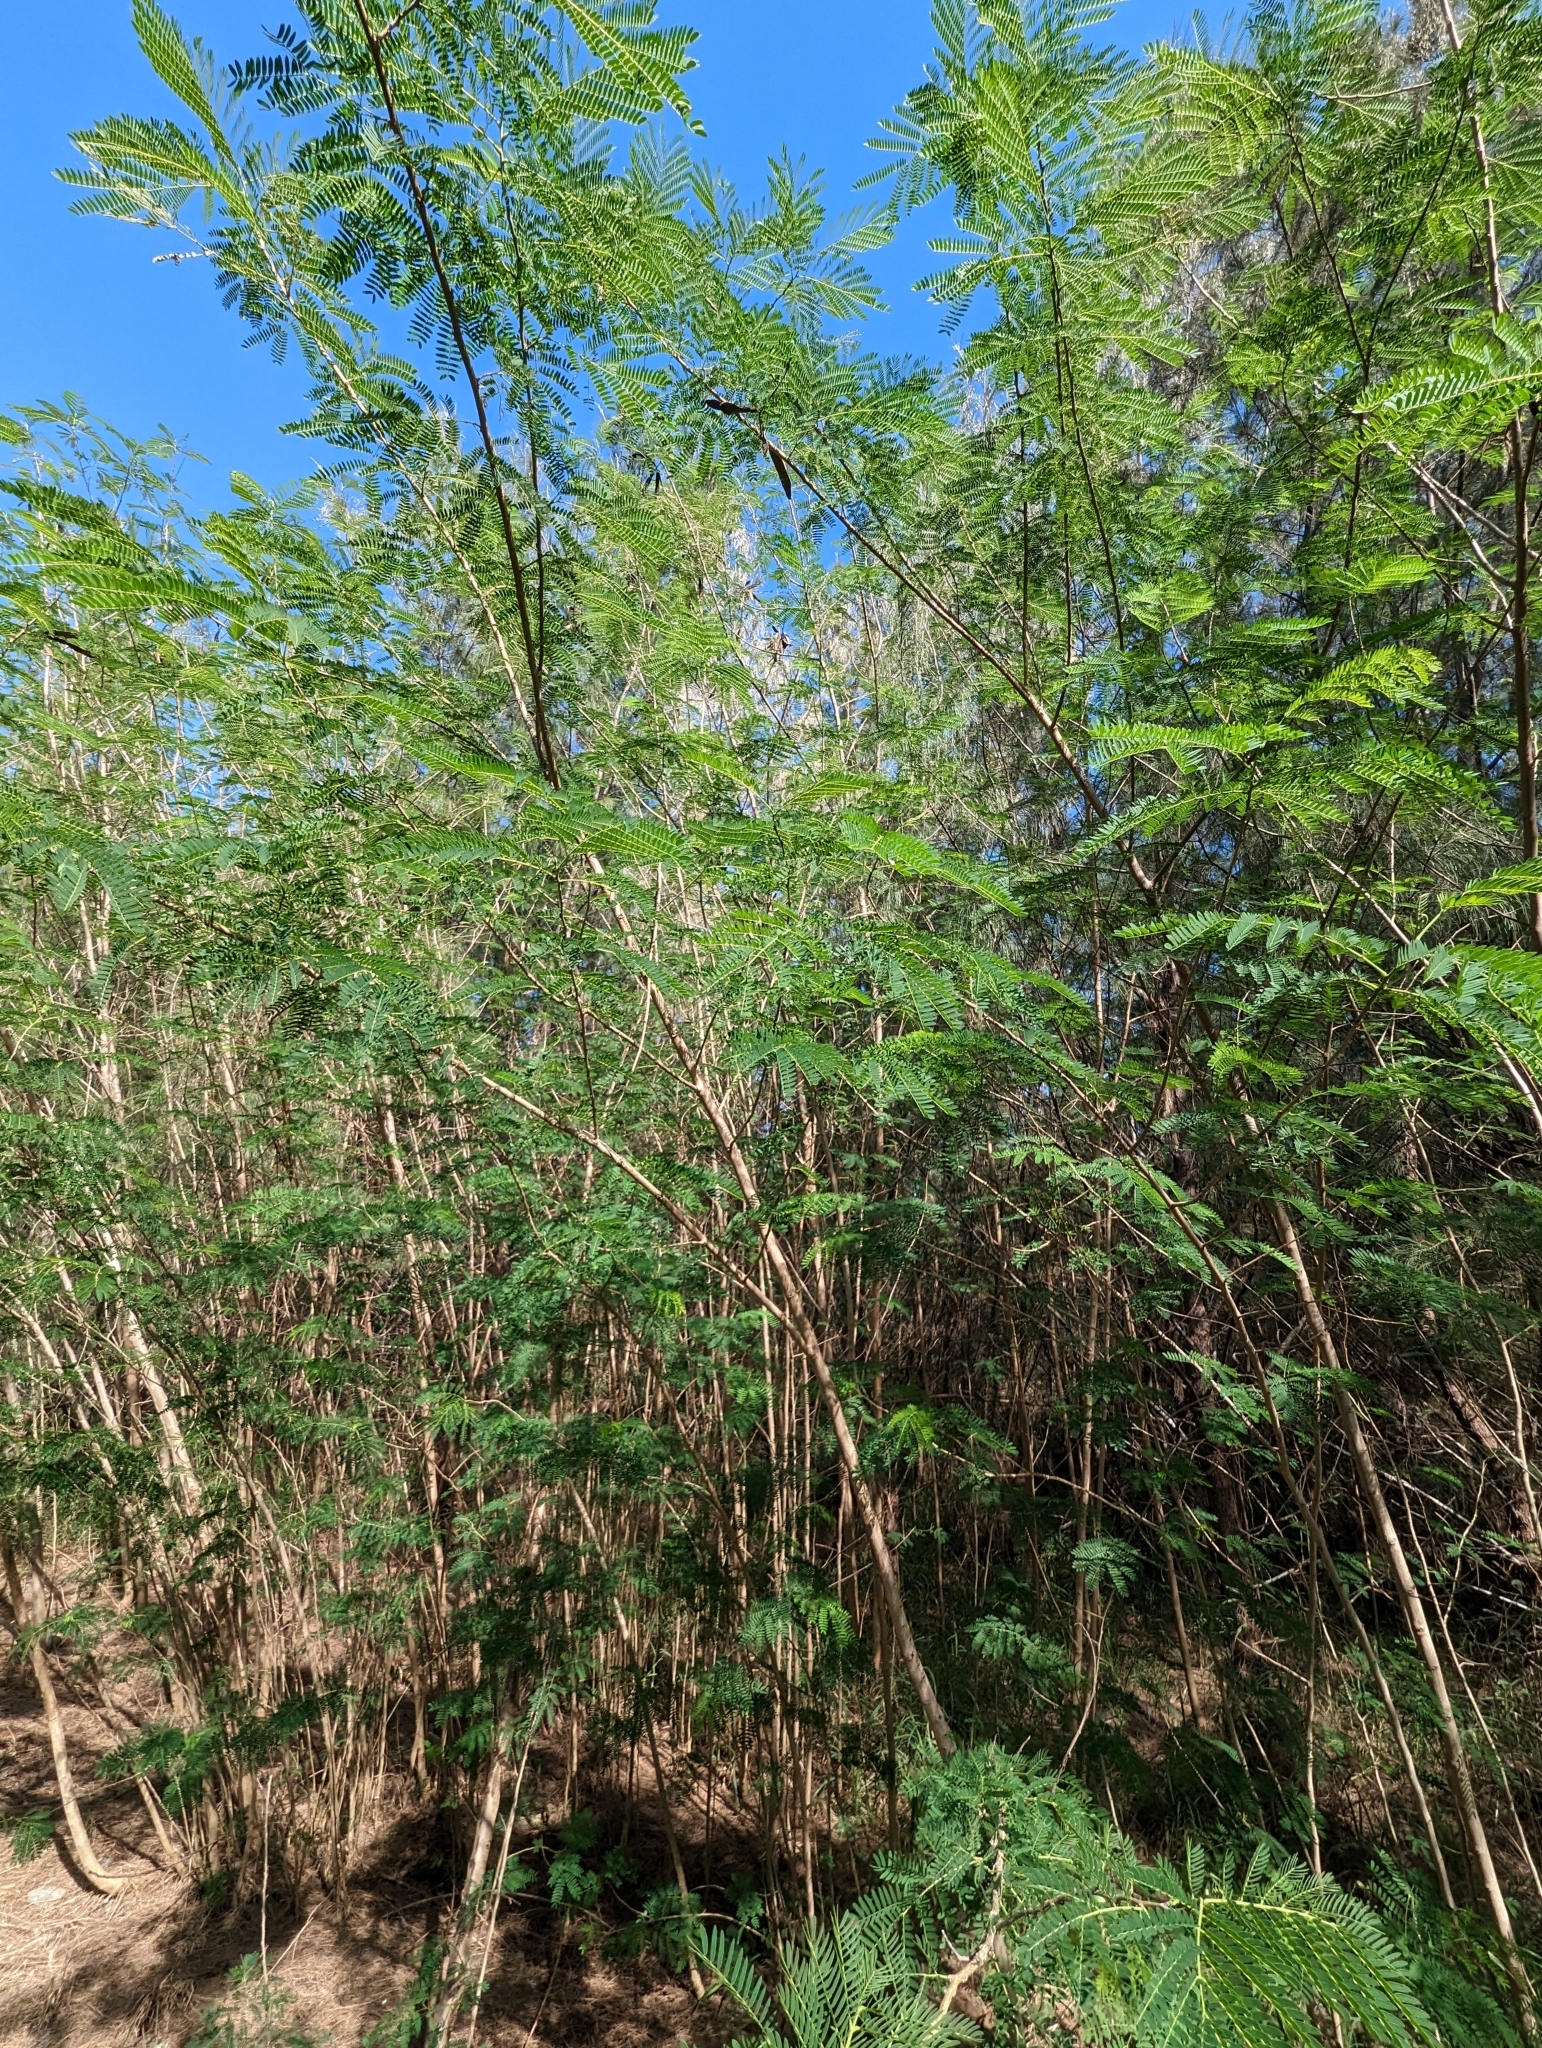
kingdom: Plantae
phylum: Tracheophyta
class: Magnoliopsida
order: Fabales
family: Fabaceae
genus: Leucaena
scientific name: Leucaena leucocephala
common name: White leadtree
